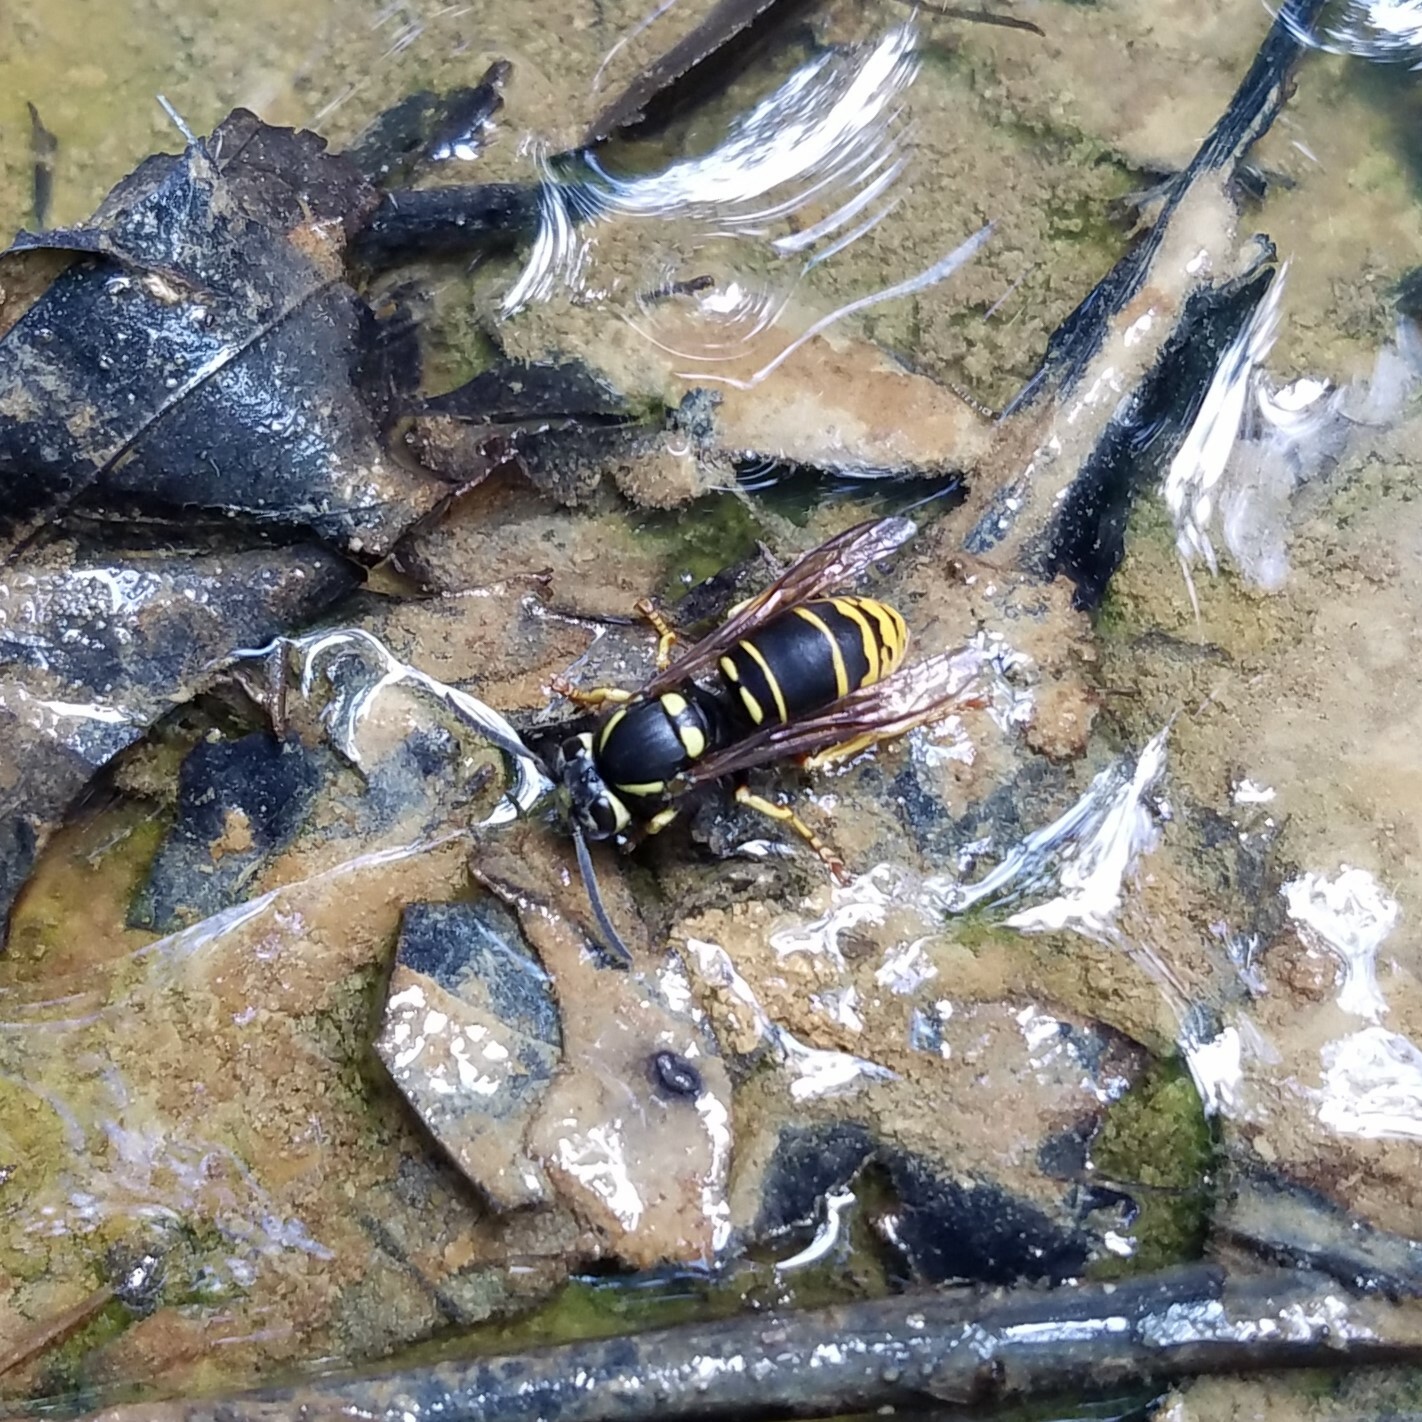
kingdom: Animalia
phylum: Arthropoda
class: Insecta
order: Hymenoptera
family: Vespidae
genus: Vespula
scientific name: Vespula vidua
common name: Widow yellowjacket
